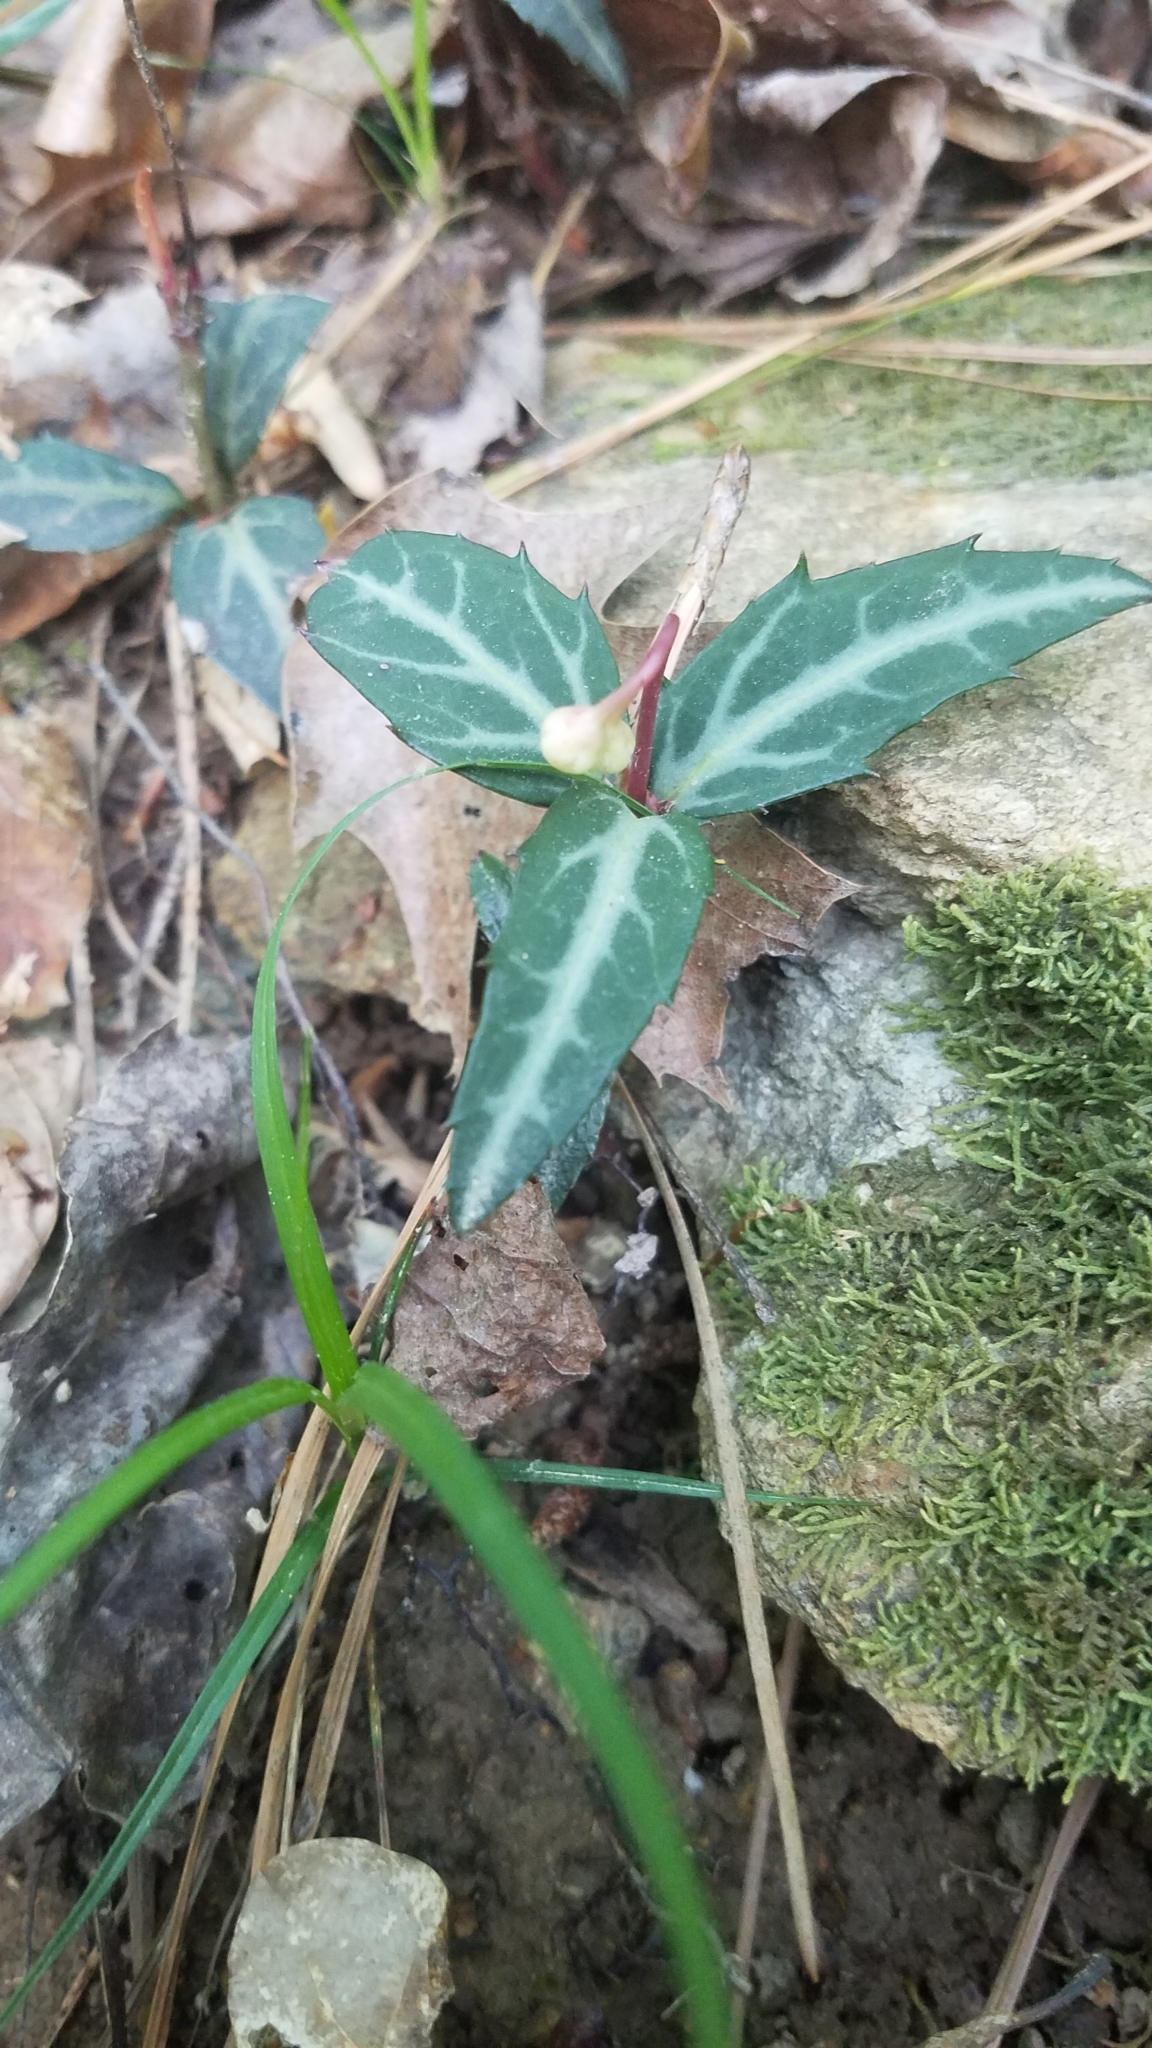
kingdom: Plantae
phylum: Tracheophyta
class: Magnoliopsida
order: Ericales
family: Ericaceae
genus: Chimaphila
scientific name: Chimaphila maculata
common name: Spotted pipsissewa
